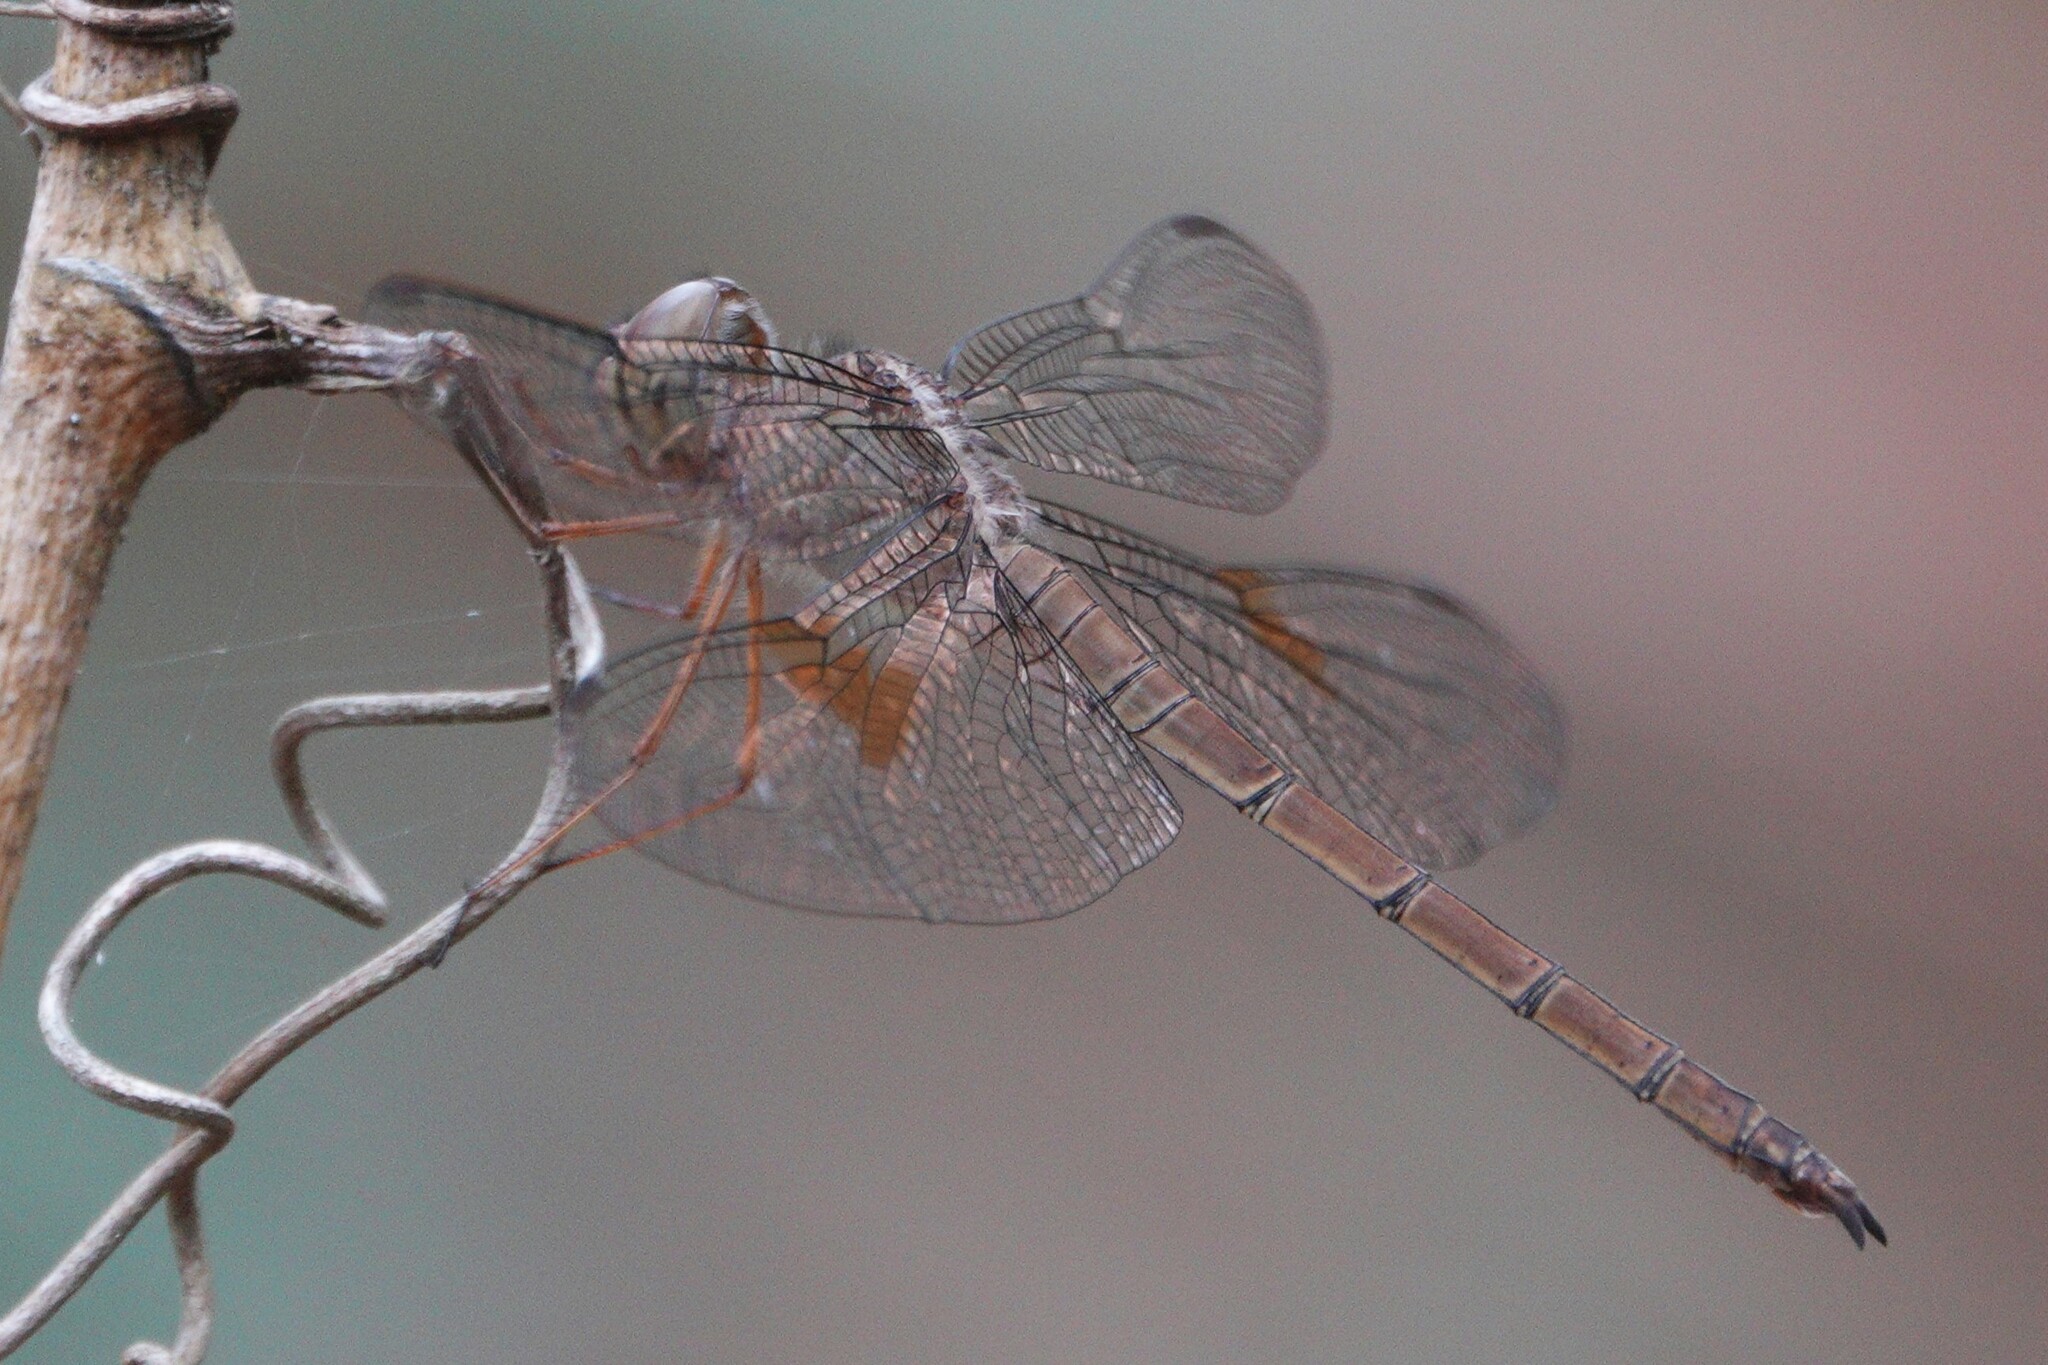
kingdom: Animalia
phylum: Arthropoda
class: Insecta
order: Odonata
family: Libellulidae
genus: Tholymis
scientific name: Tholymis citrina
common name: Evening skimmer
